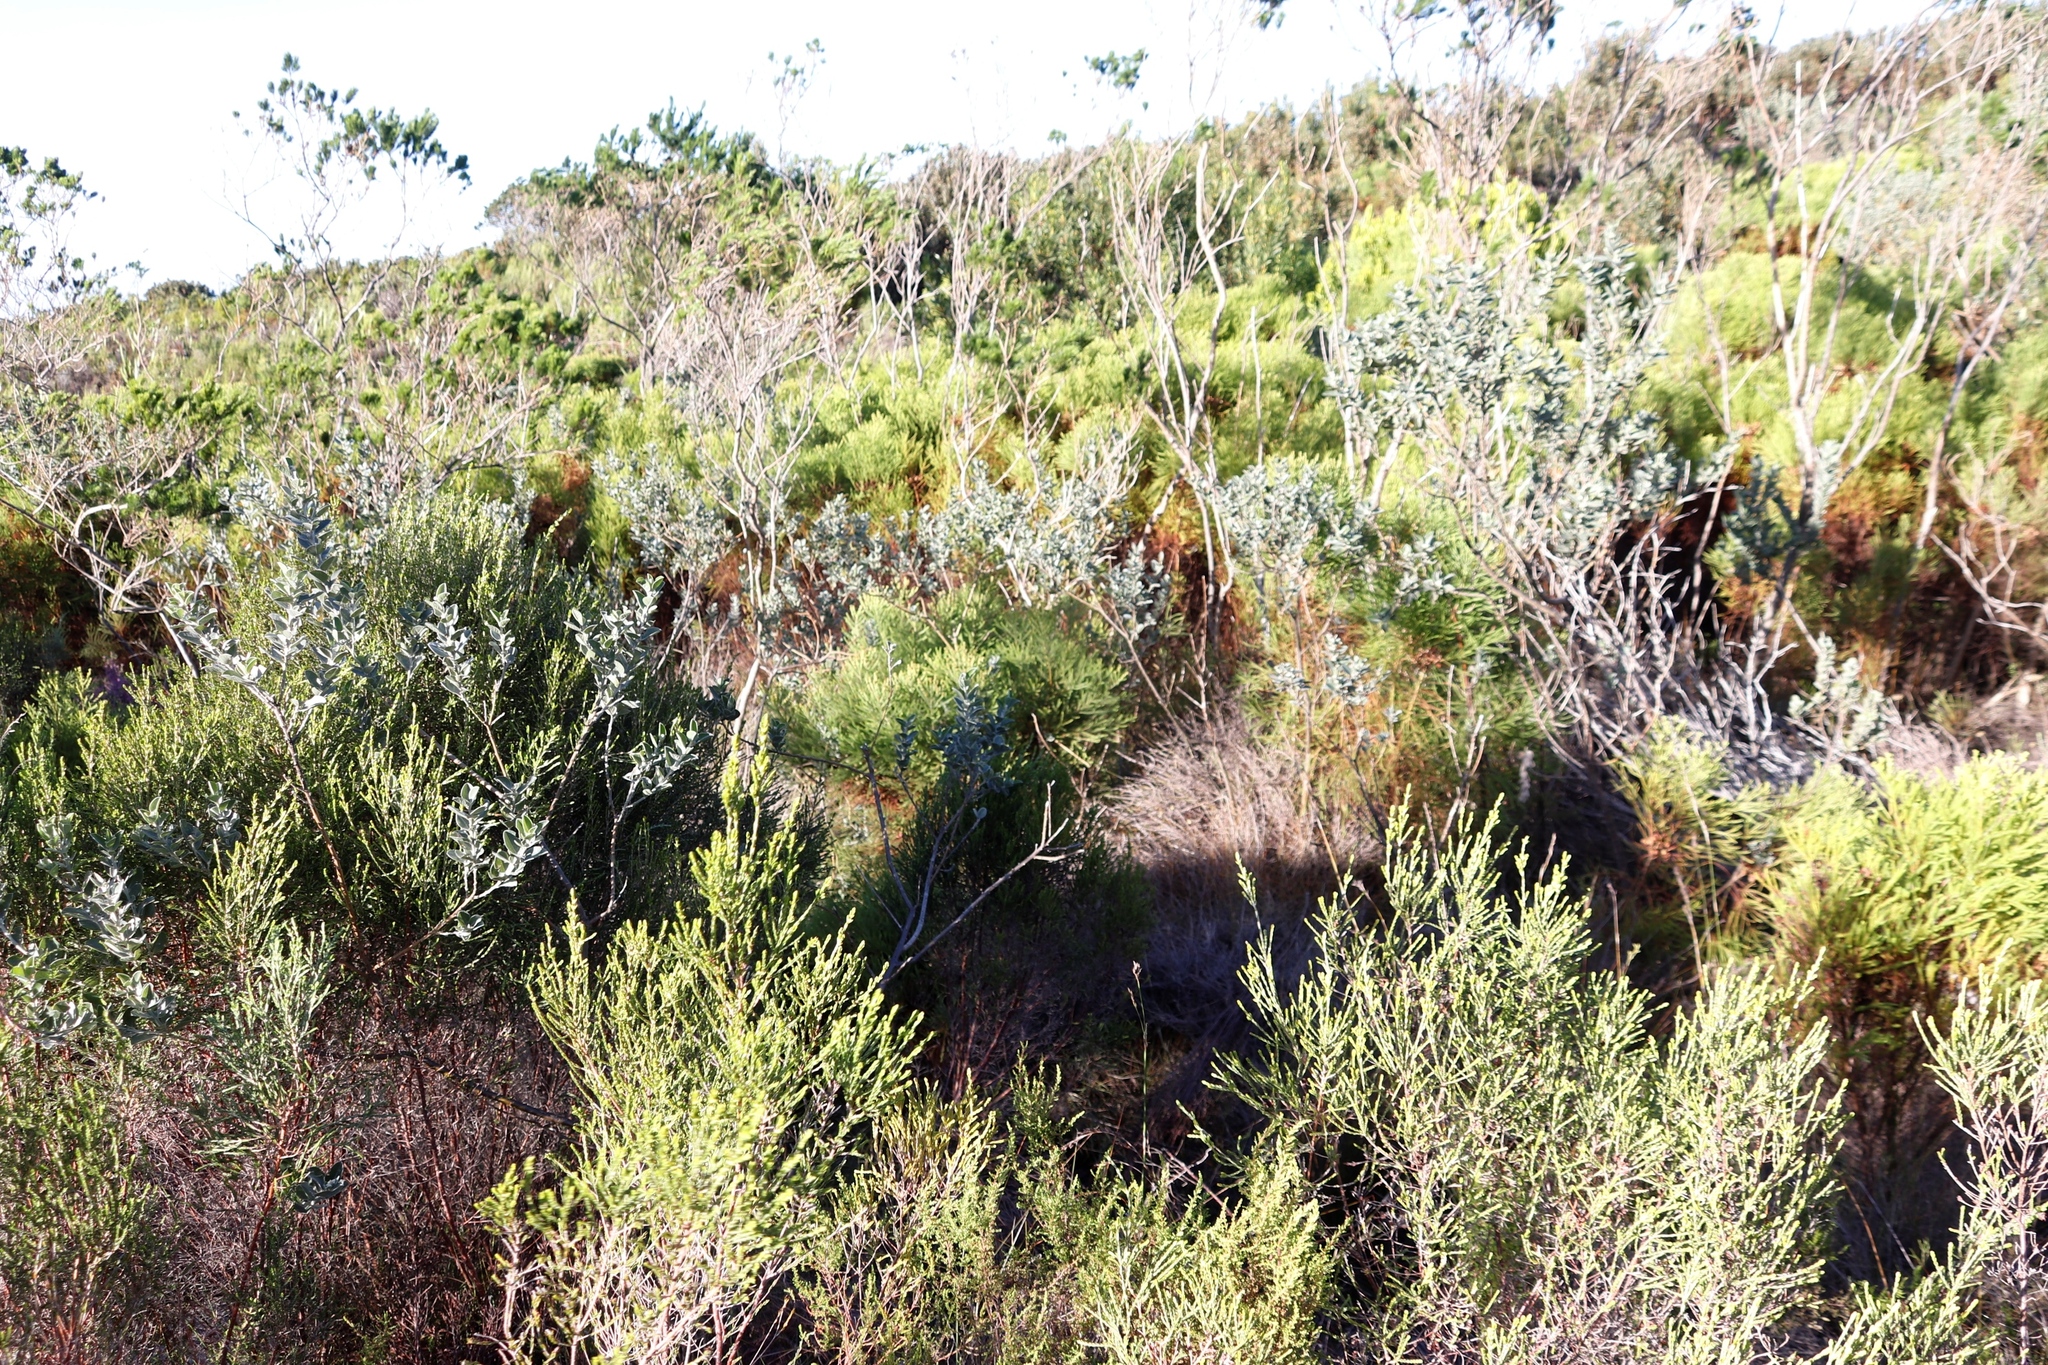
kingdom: Plantae
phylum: Tracheophyta
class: Magnoliopsida
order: Fabales
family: Fabaceae
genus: Podalyria
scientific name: Podalyria calyptrata
